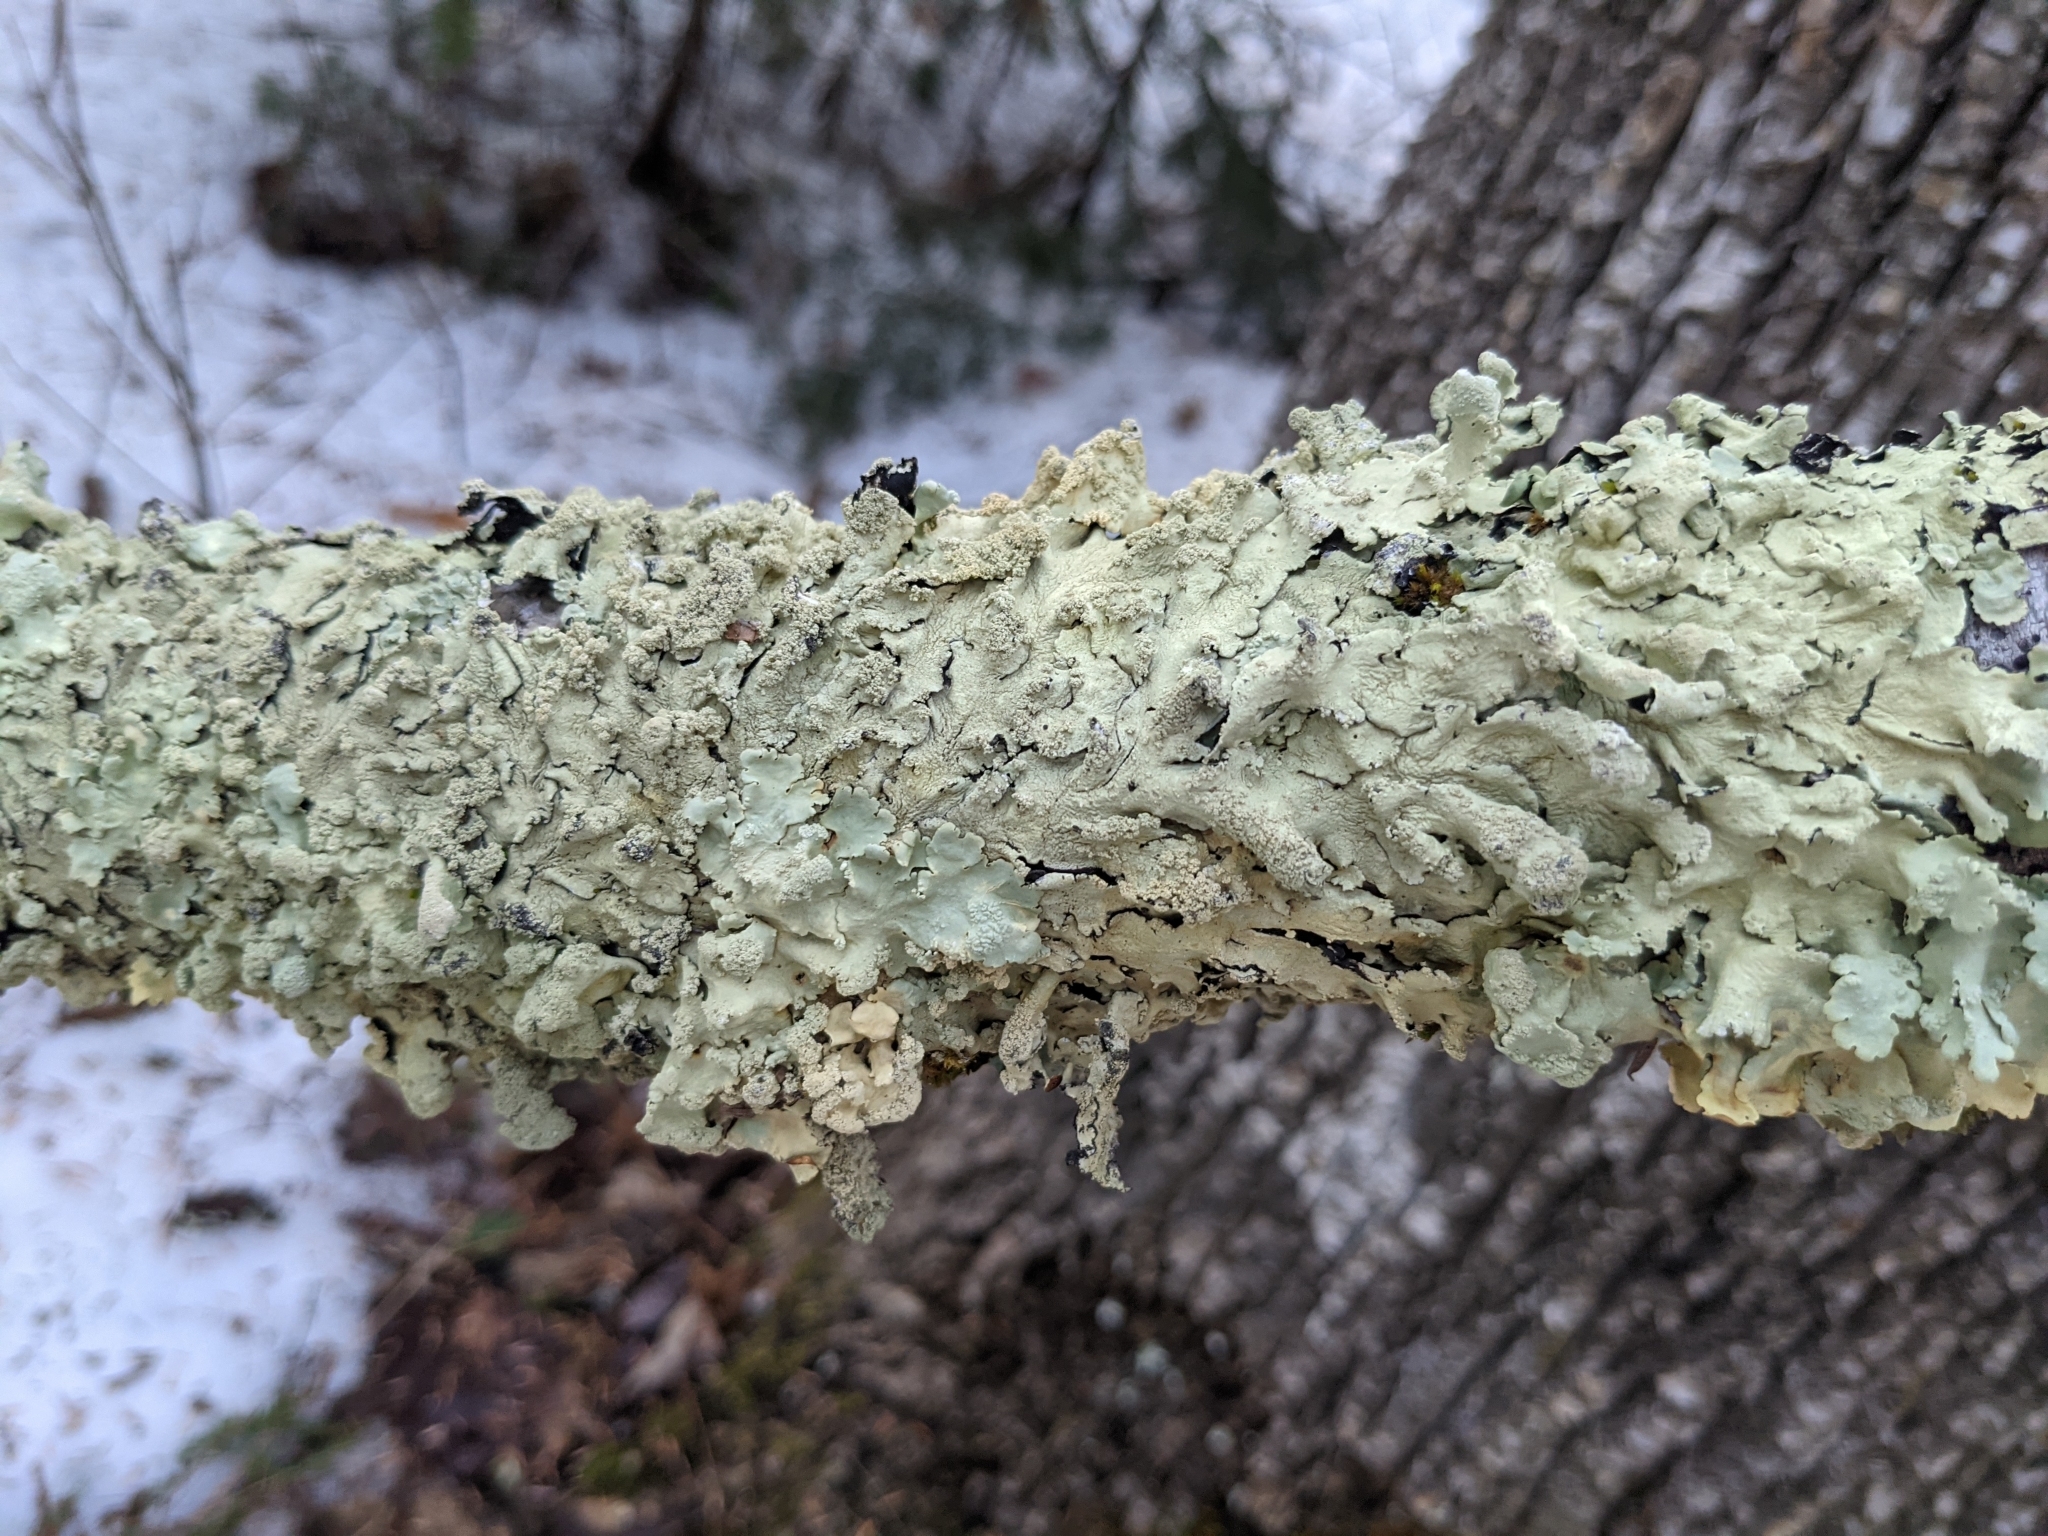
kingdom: Fungi
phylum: Ascomycota
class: Lecanoromycetes
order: Lecanorales
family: Parmeliaceae
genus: Flavoparmelia
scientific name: Flavoparmelia caperata
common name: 40-mile per hour lichen
